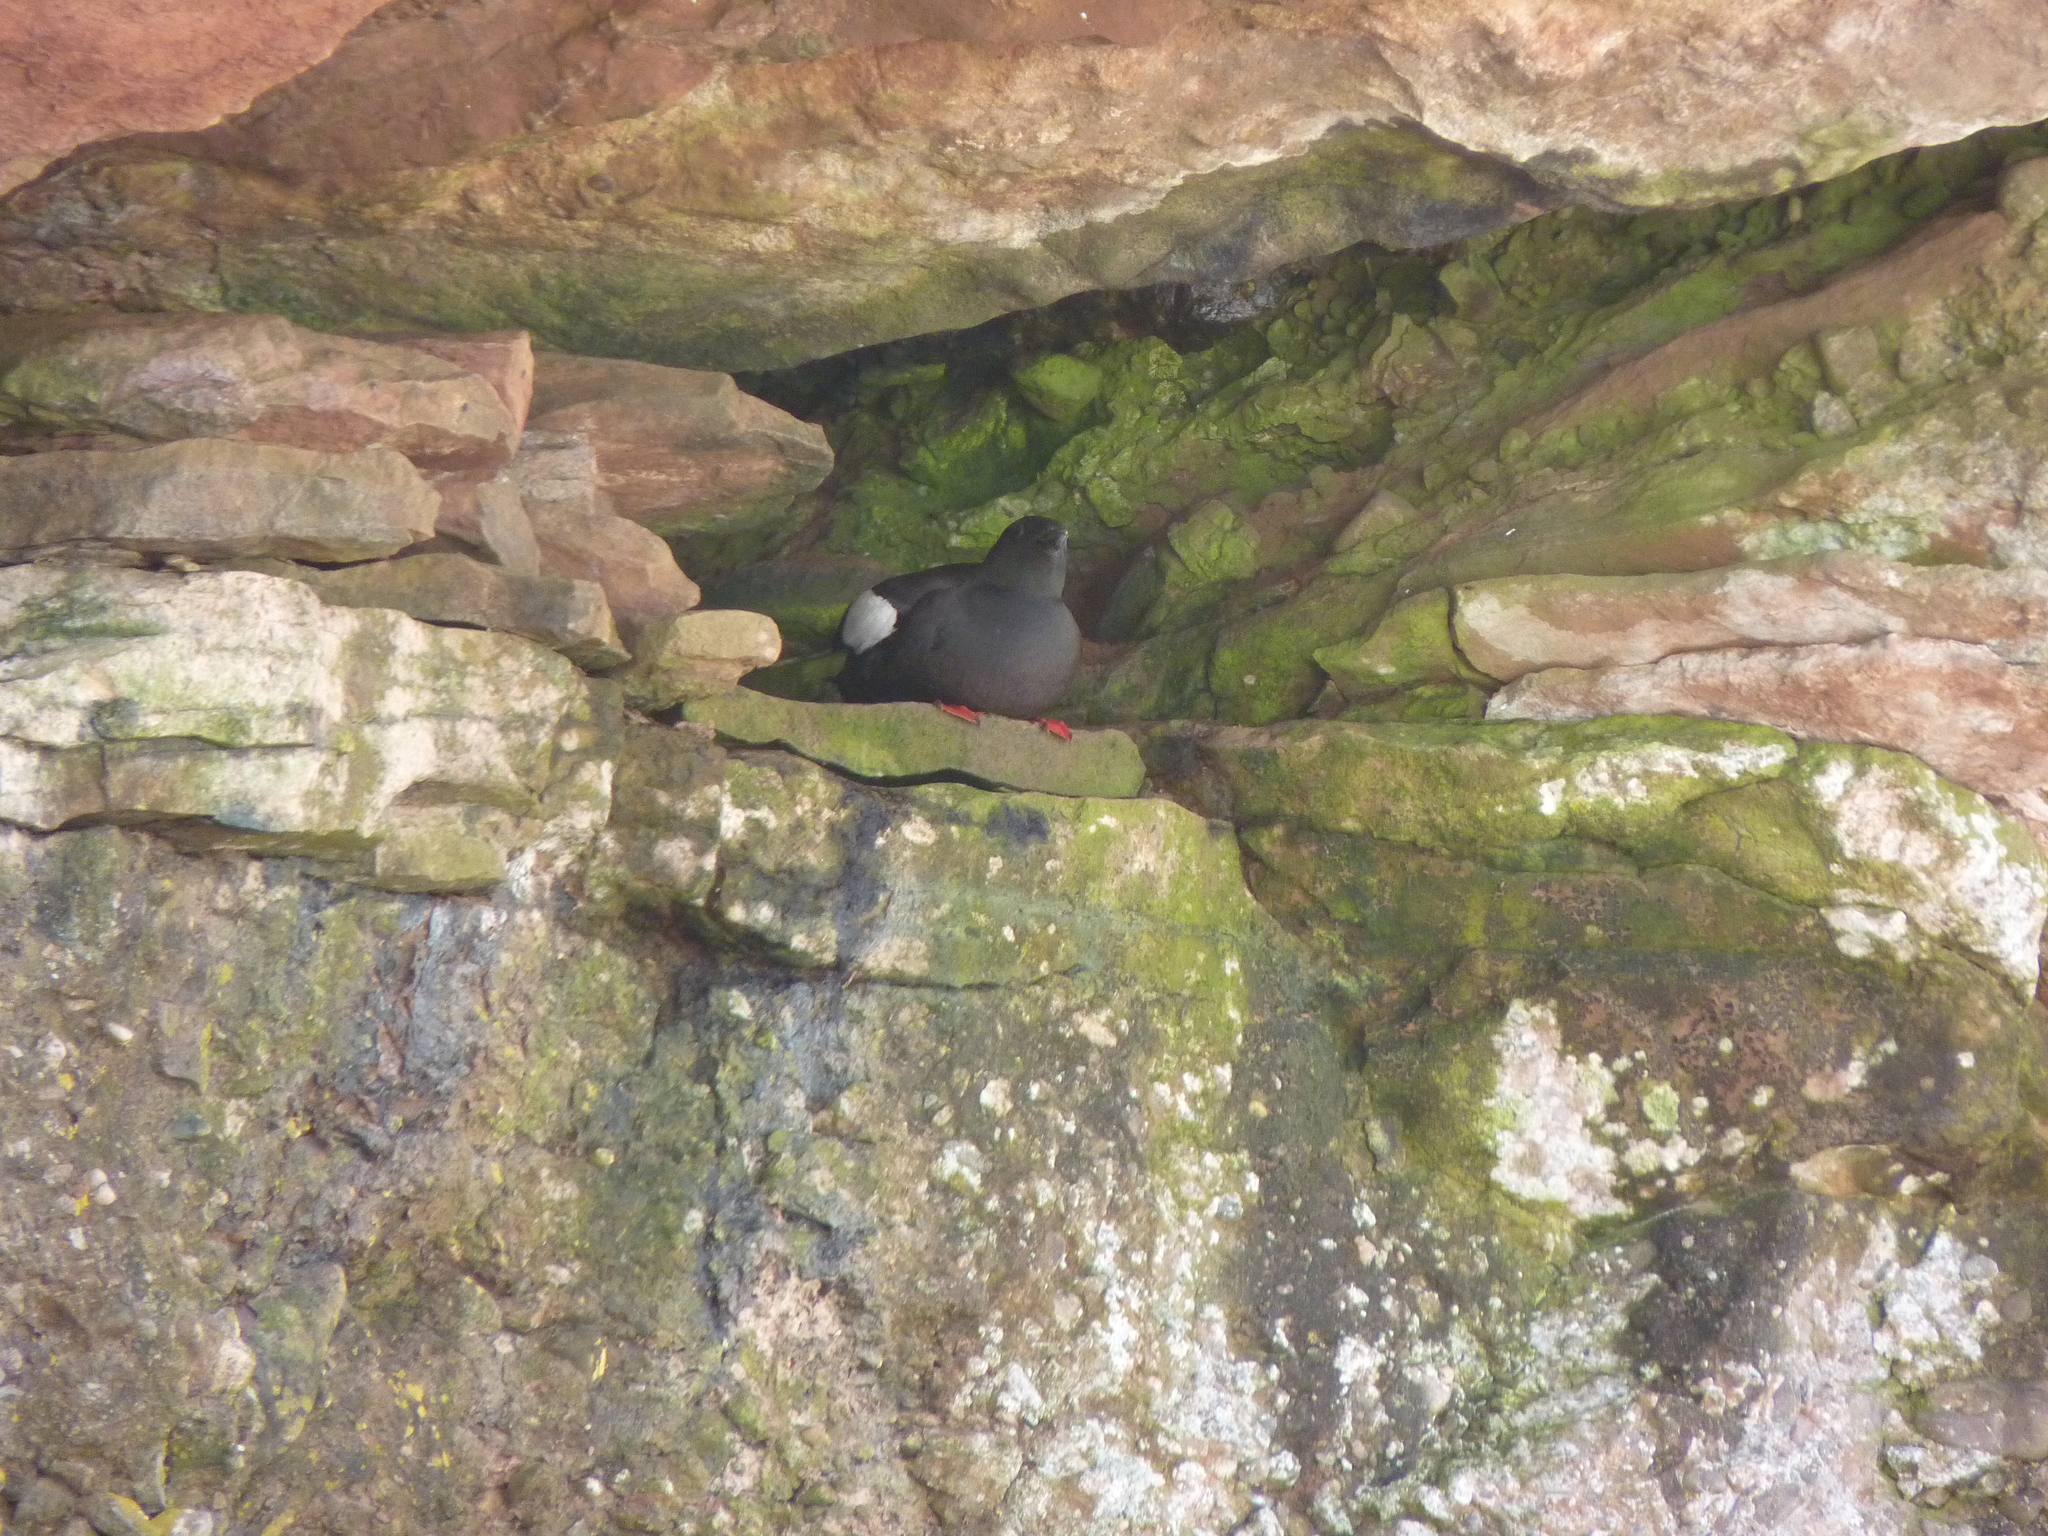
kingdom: Animalia
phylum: Chordata
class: Aves
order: Charadriiformes
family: Alcidae
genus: Cepphus
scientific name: Cepphus grylle
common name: Black guillemot
